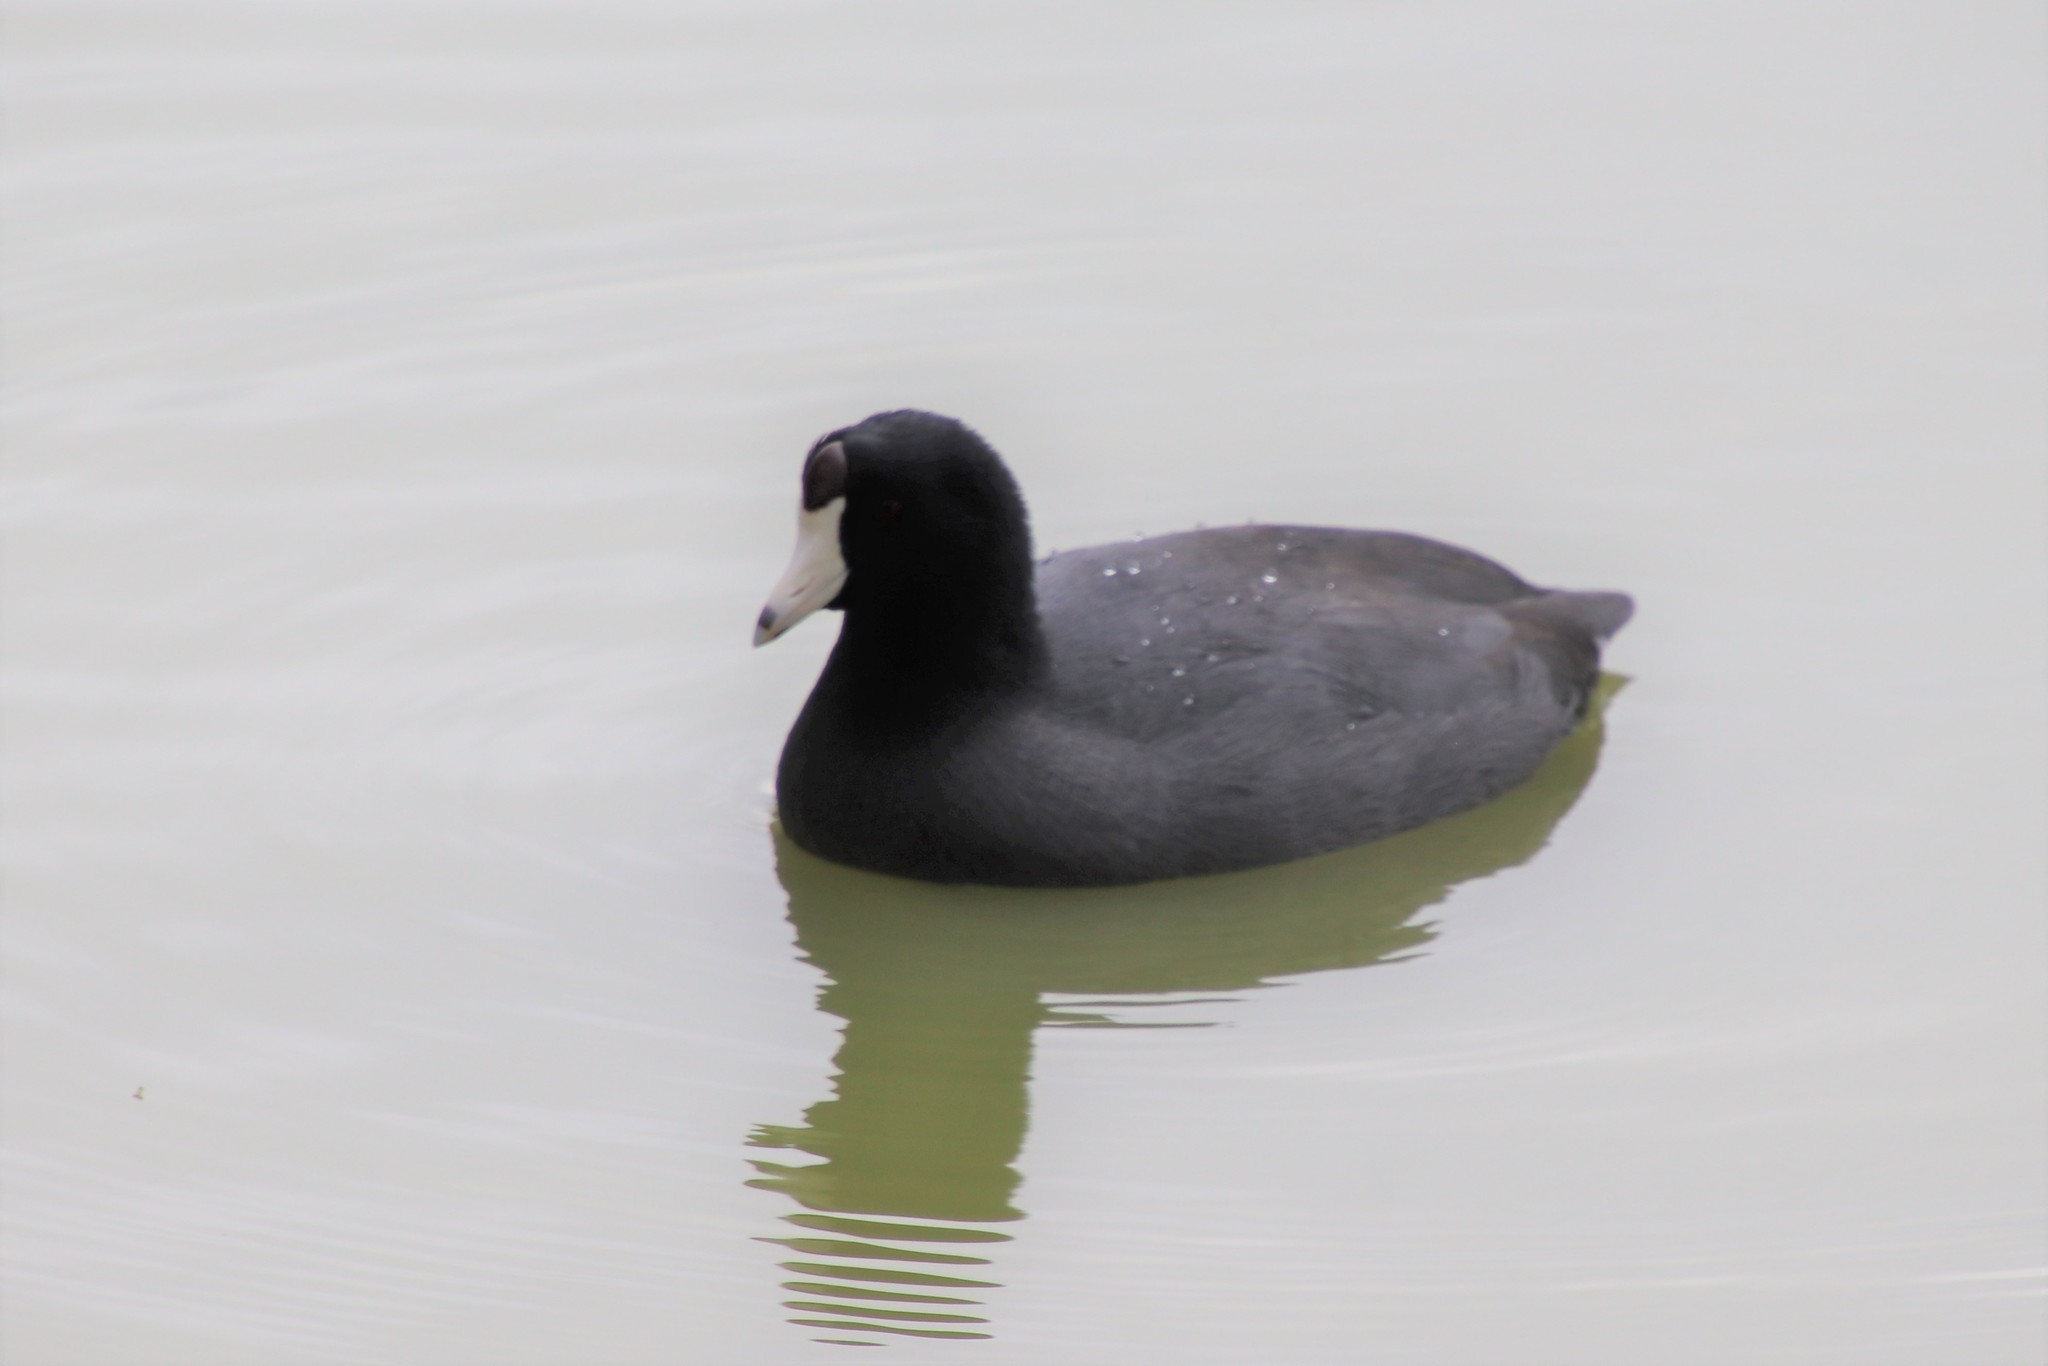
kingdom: Animalia
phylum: Chordata
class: Aves
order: Gruiformes
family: Rallidae
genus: Fulica
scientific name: Fulica americana
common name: American coot
